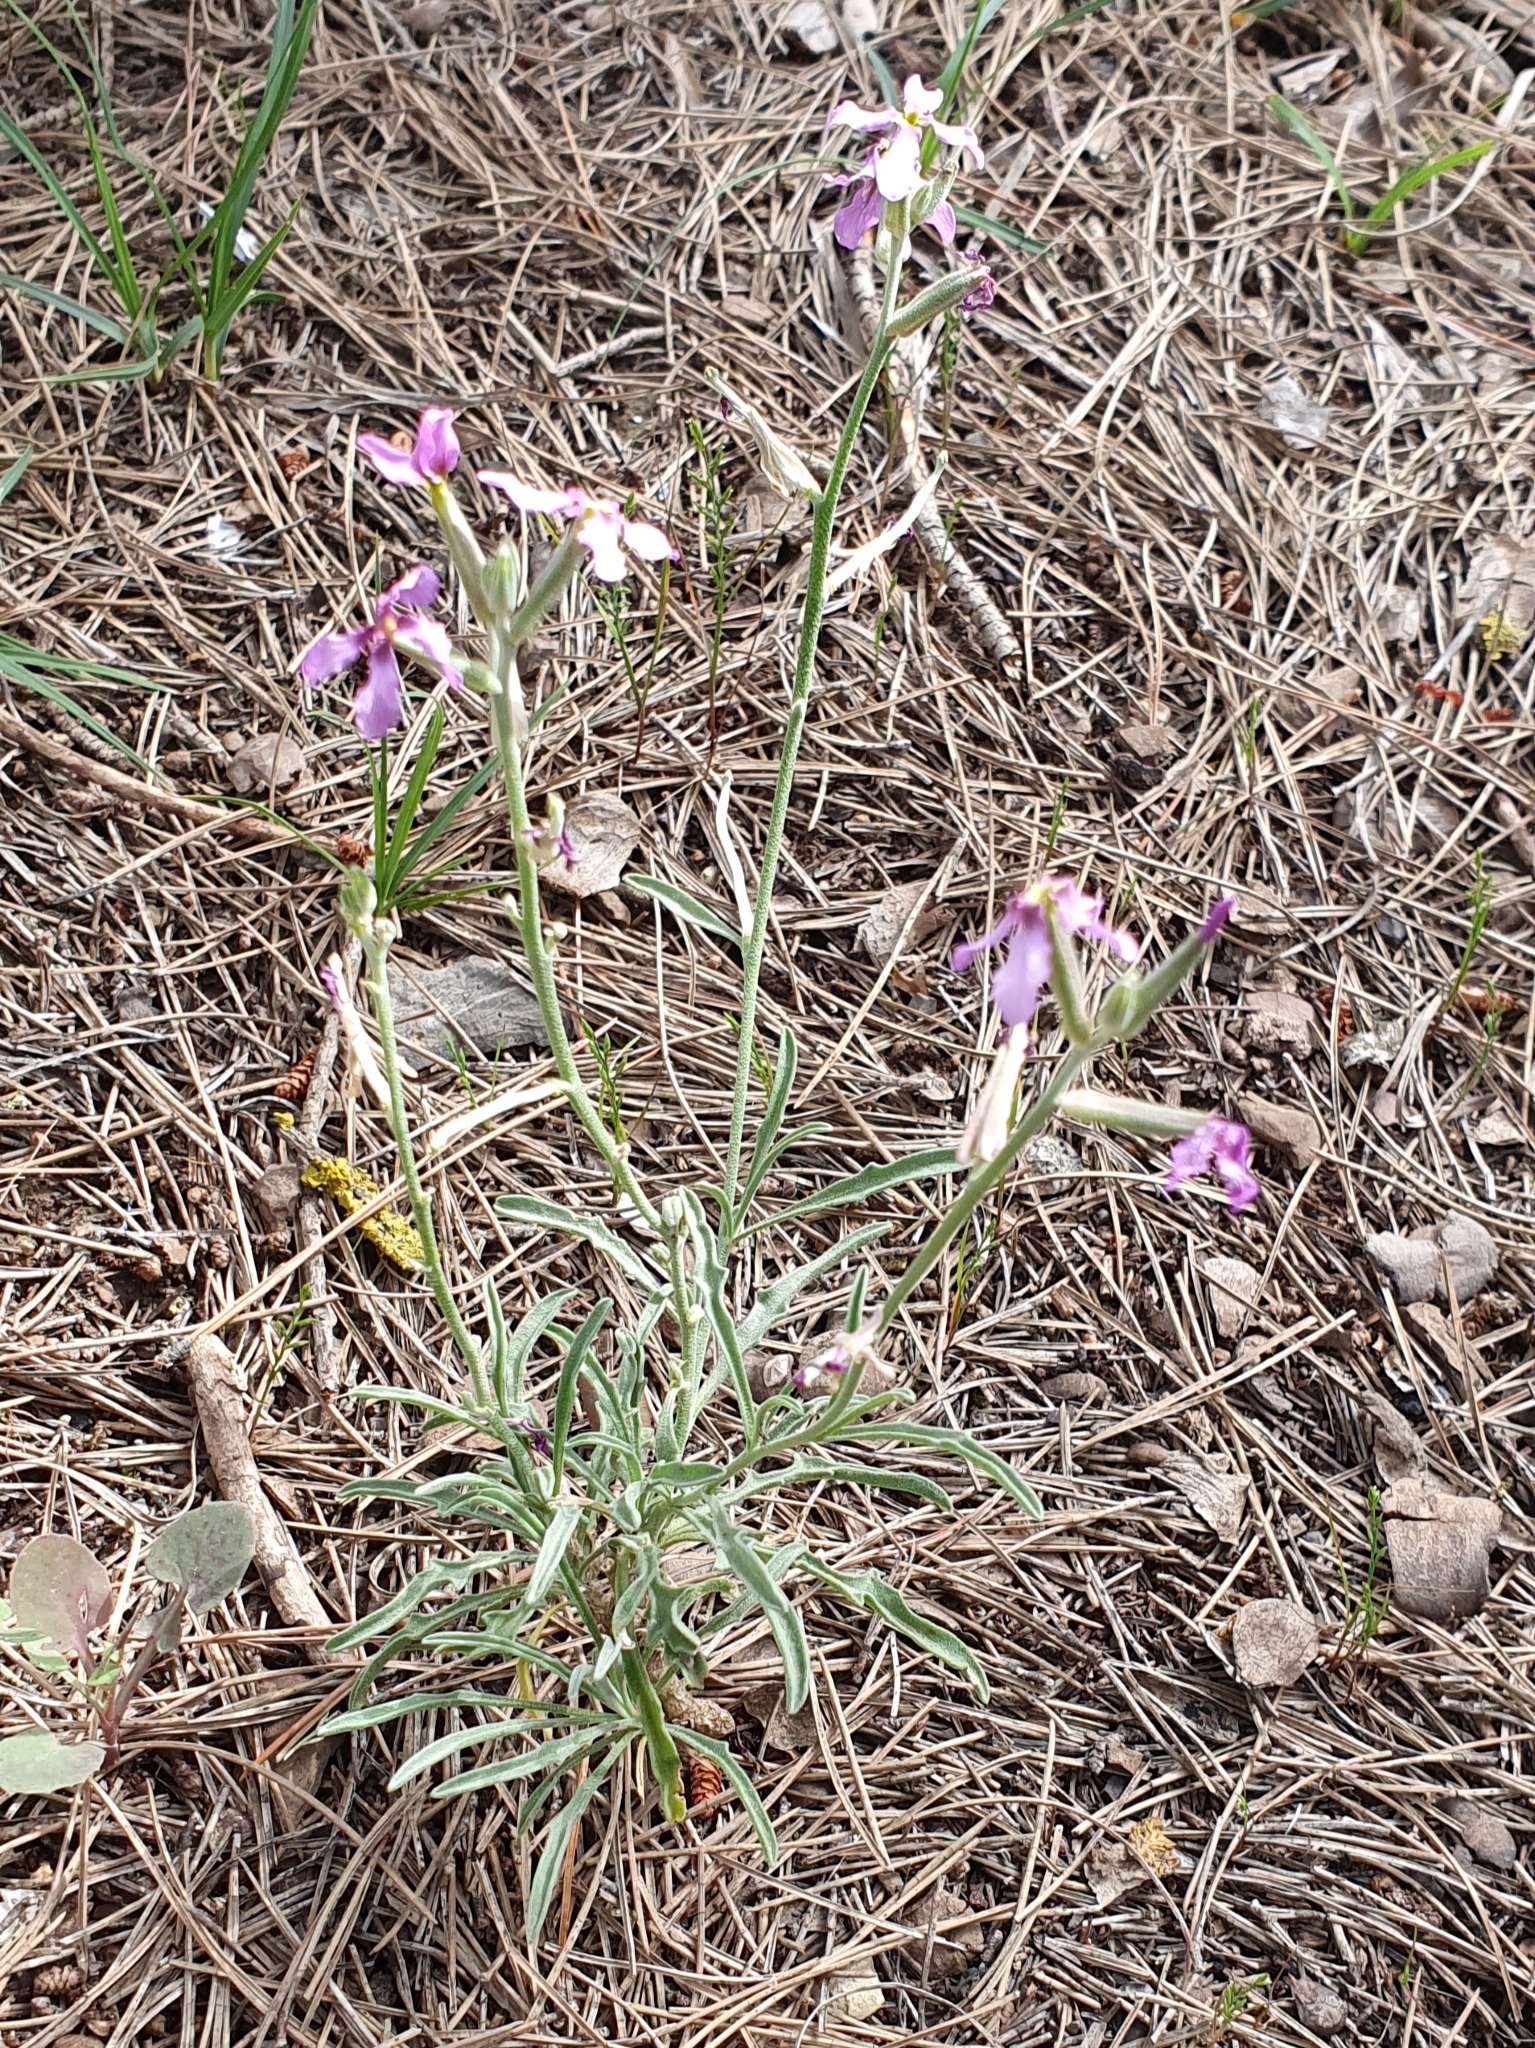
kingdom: Plantae
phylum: Tracheophyta
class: Magnoliopsida
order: Brassicales
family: Brassicaceae
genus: Matthiola
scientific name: Matthiola fruticulosa
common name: Sad stock
